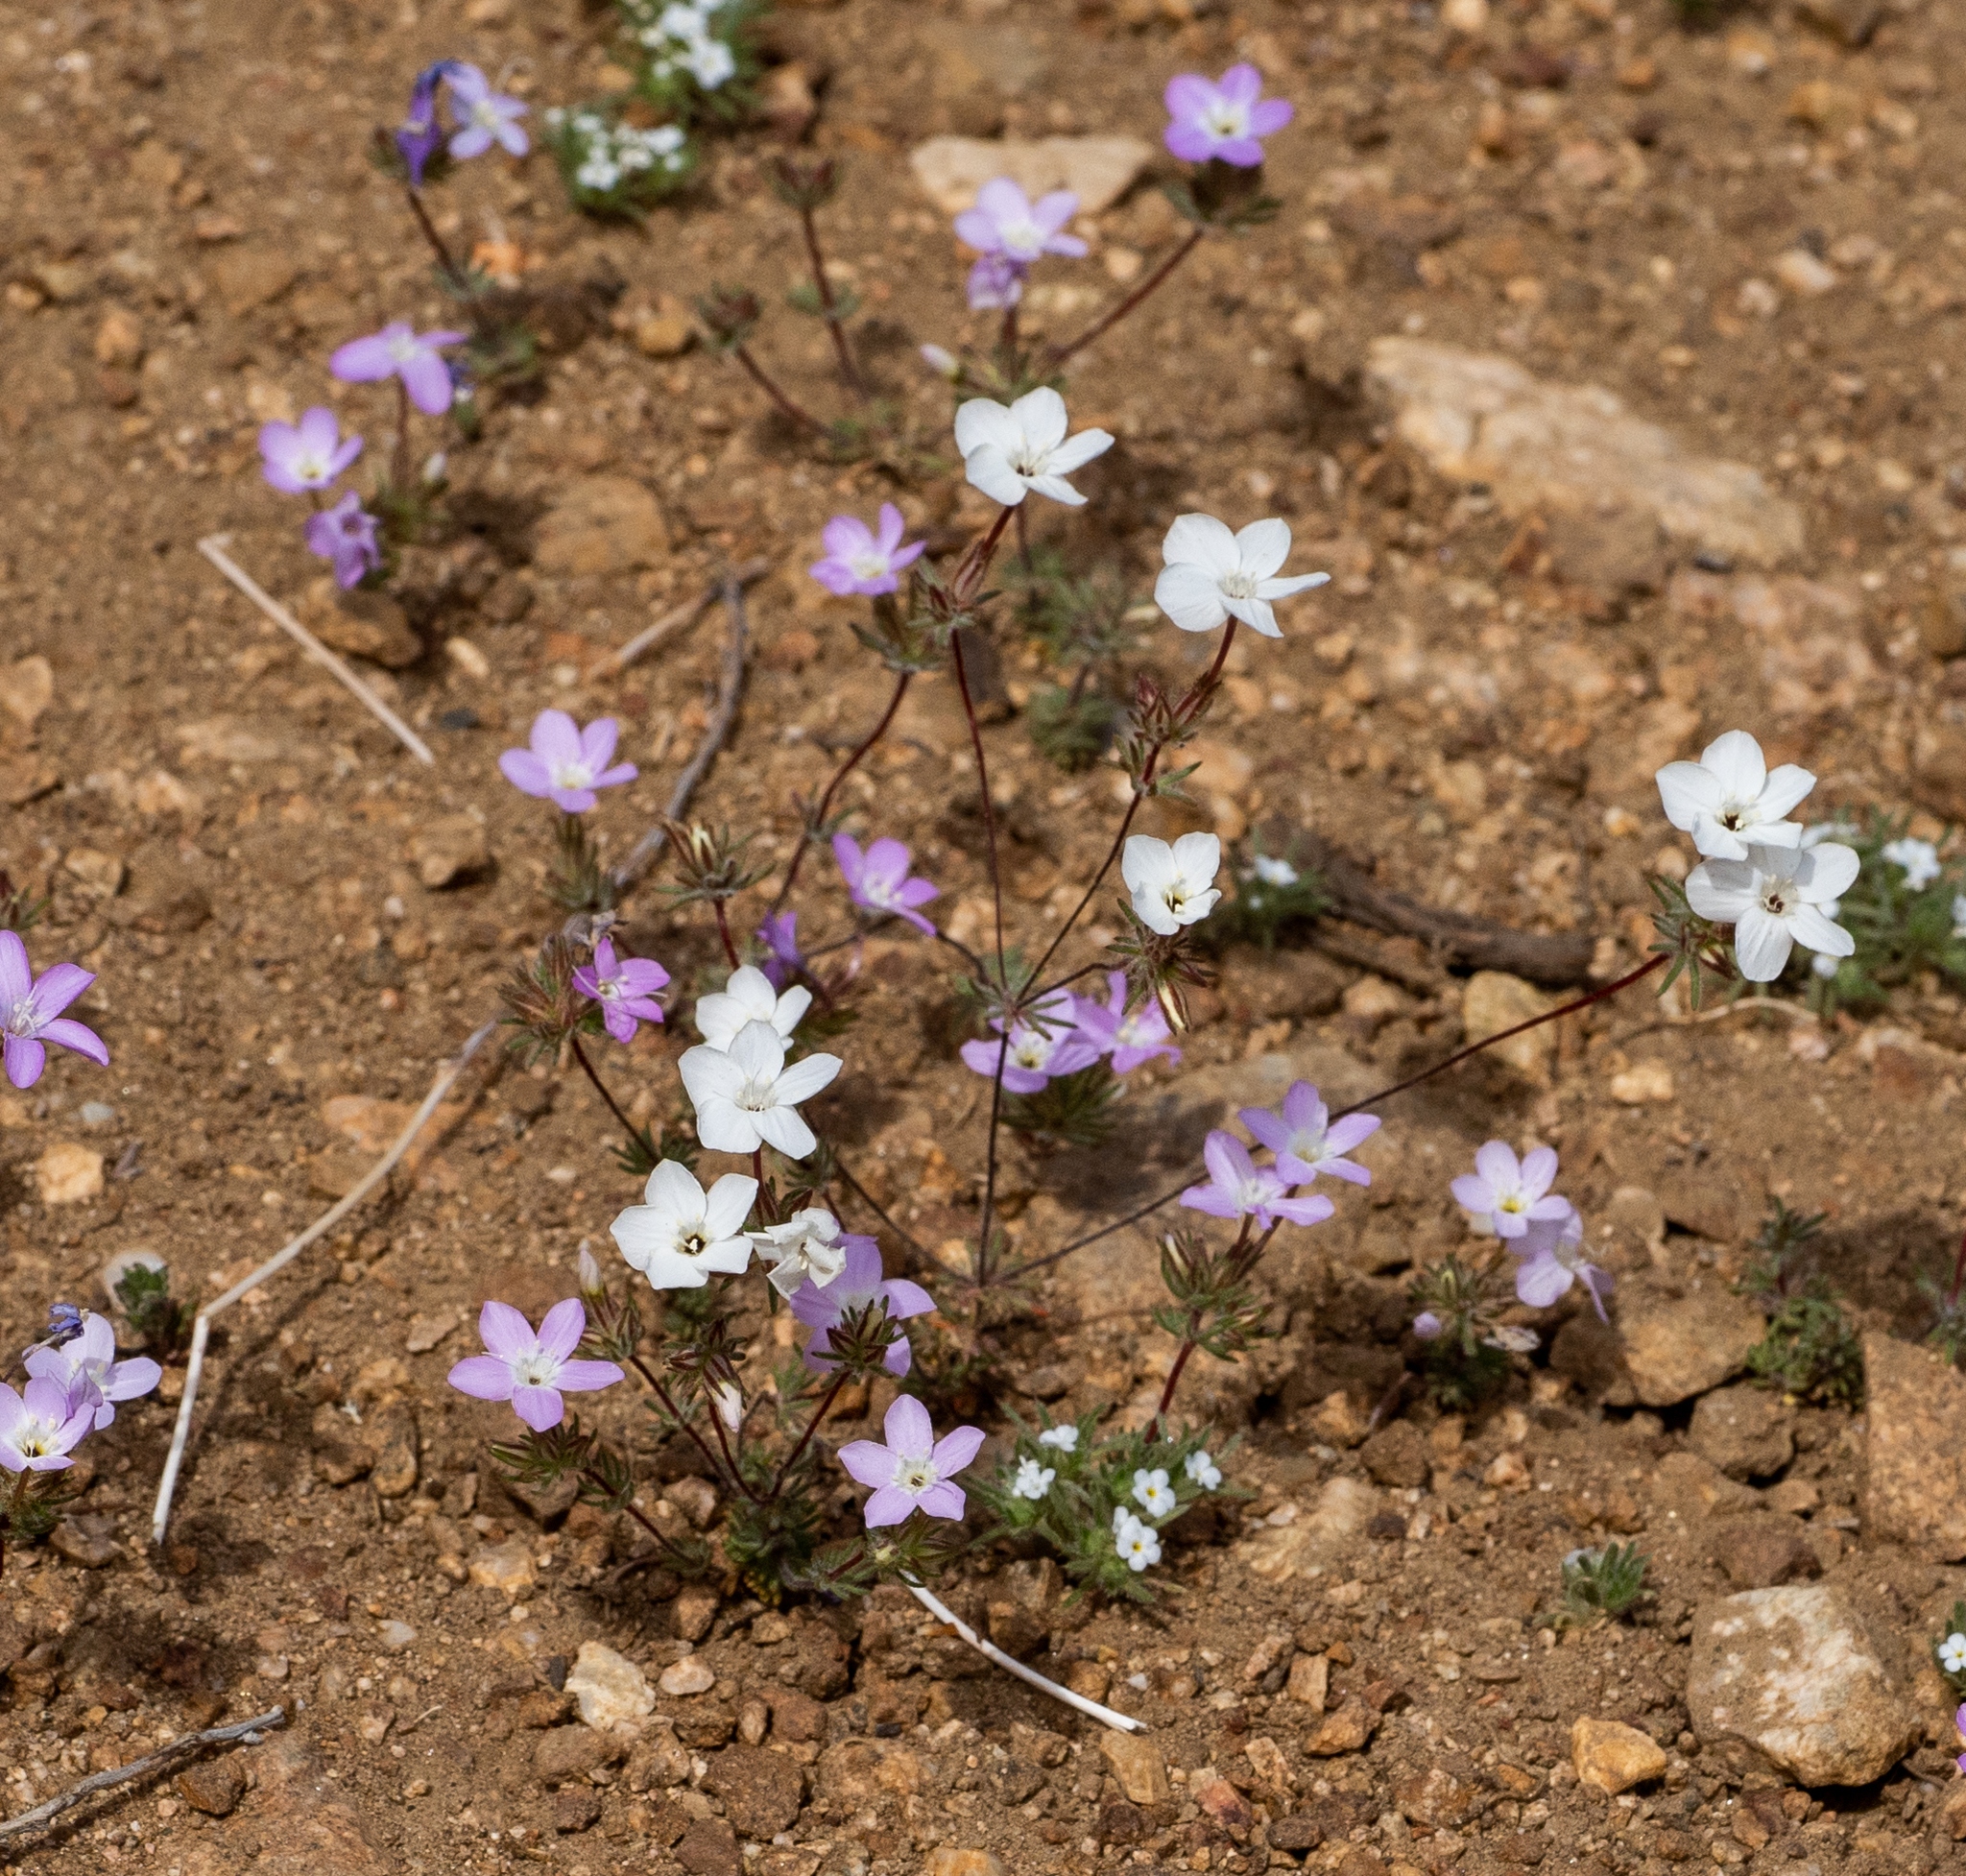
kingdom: Plantae
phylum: Tracheophyta
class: Magnoliopsida
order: Ericales
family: Polemoniaceae
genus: Leptosiphon
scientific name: Leptosiphon breviculus
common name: Mojave linanthus
